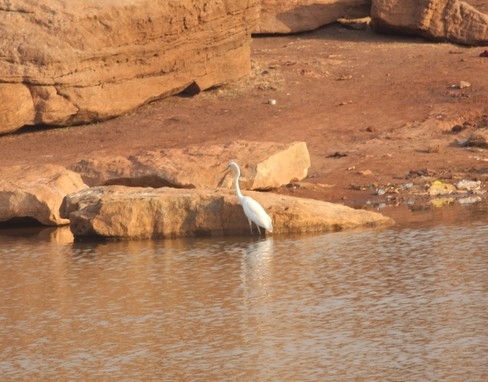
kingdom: Animalia
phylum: Chordata
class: Aves
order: Pelecaniformes
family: Ardeidae
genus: Ardea
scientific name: Ardea alba
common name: Great egret
